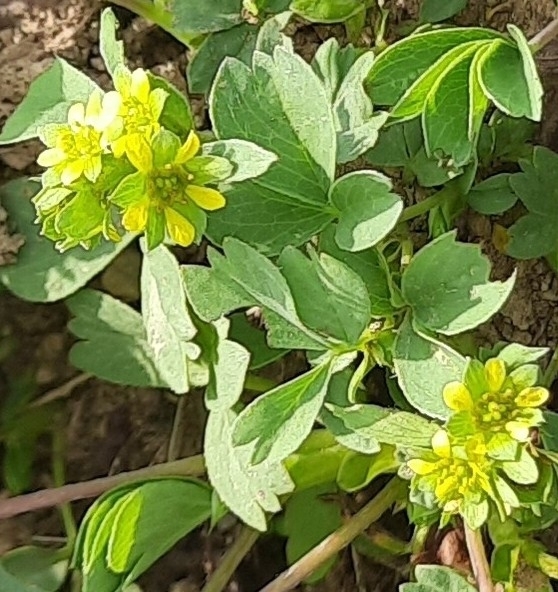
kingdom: Plantae
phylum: Tracheophyta
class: Magnoliopsida
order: Rosales
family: Rosaceae
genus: Sibbaldia
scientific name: Sibbaldia parviflora
